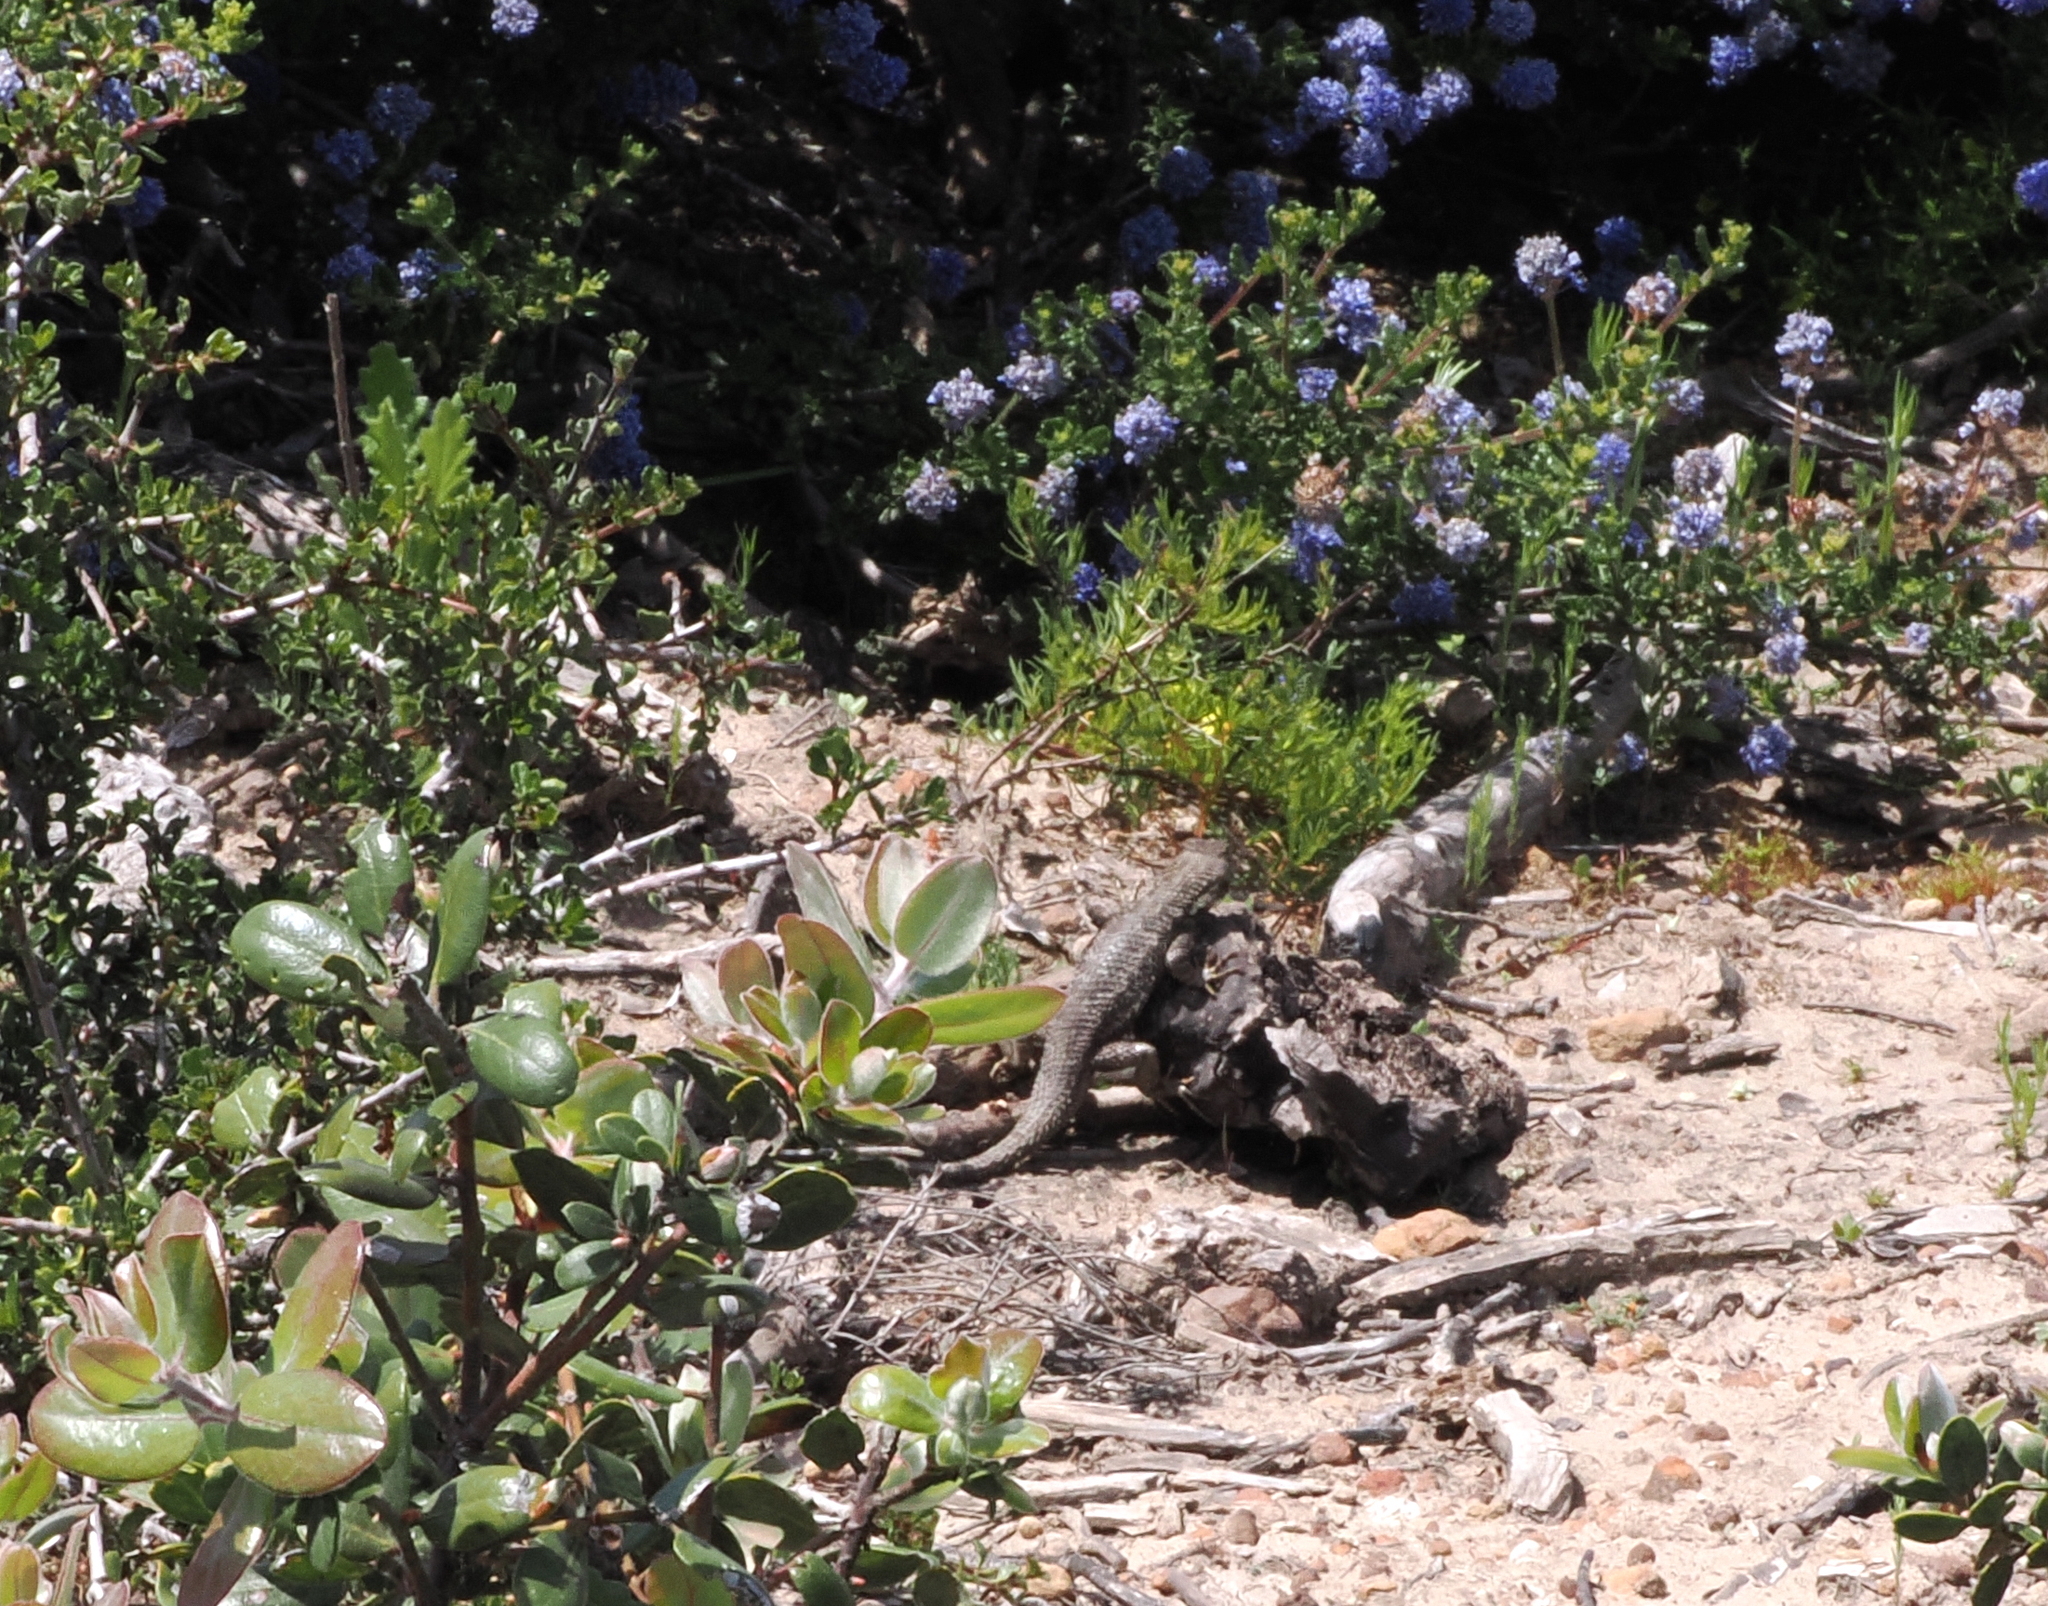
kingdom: Animalia
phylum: Chordata
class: Squamata
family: Phrynosomatidae
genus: Sceloporus
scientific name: Sceloporus occidentalis
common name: Western fence lizard
